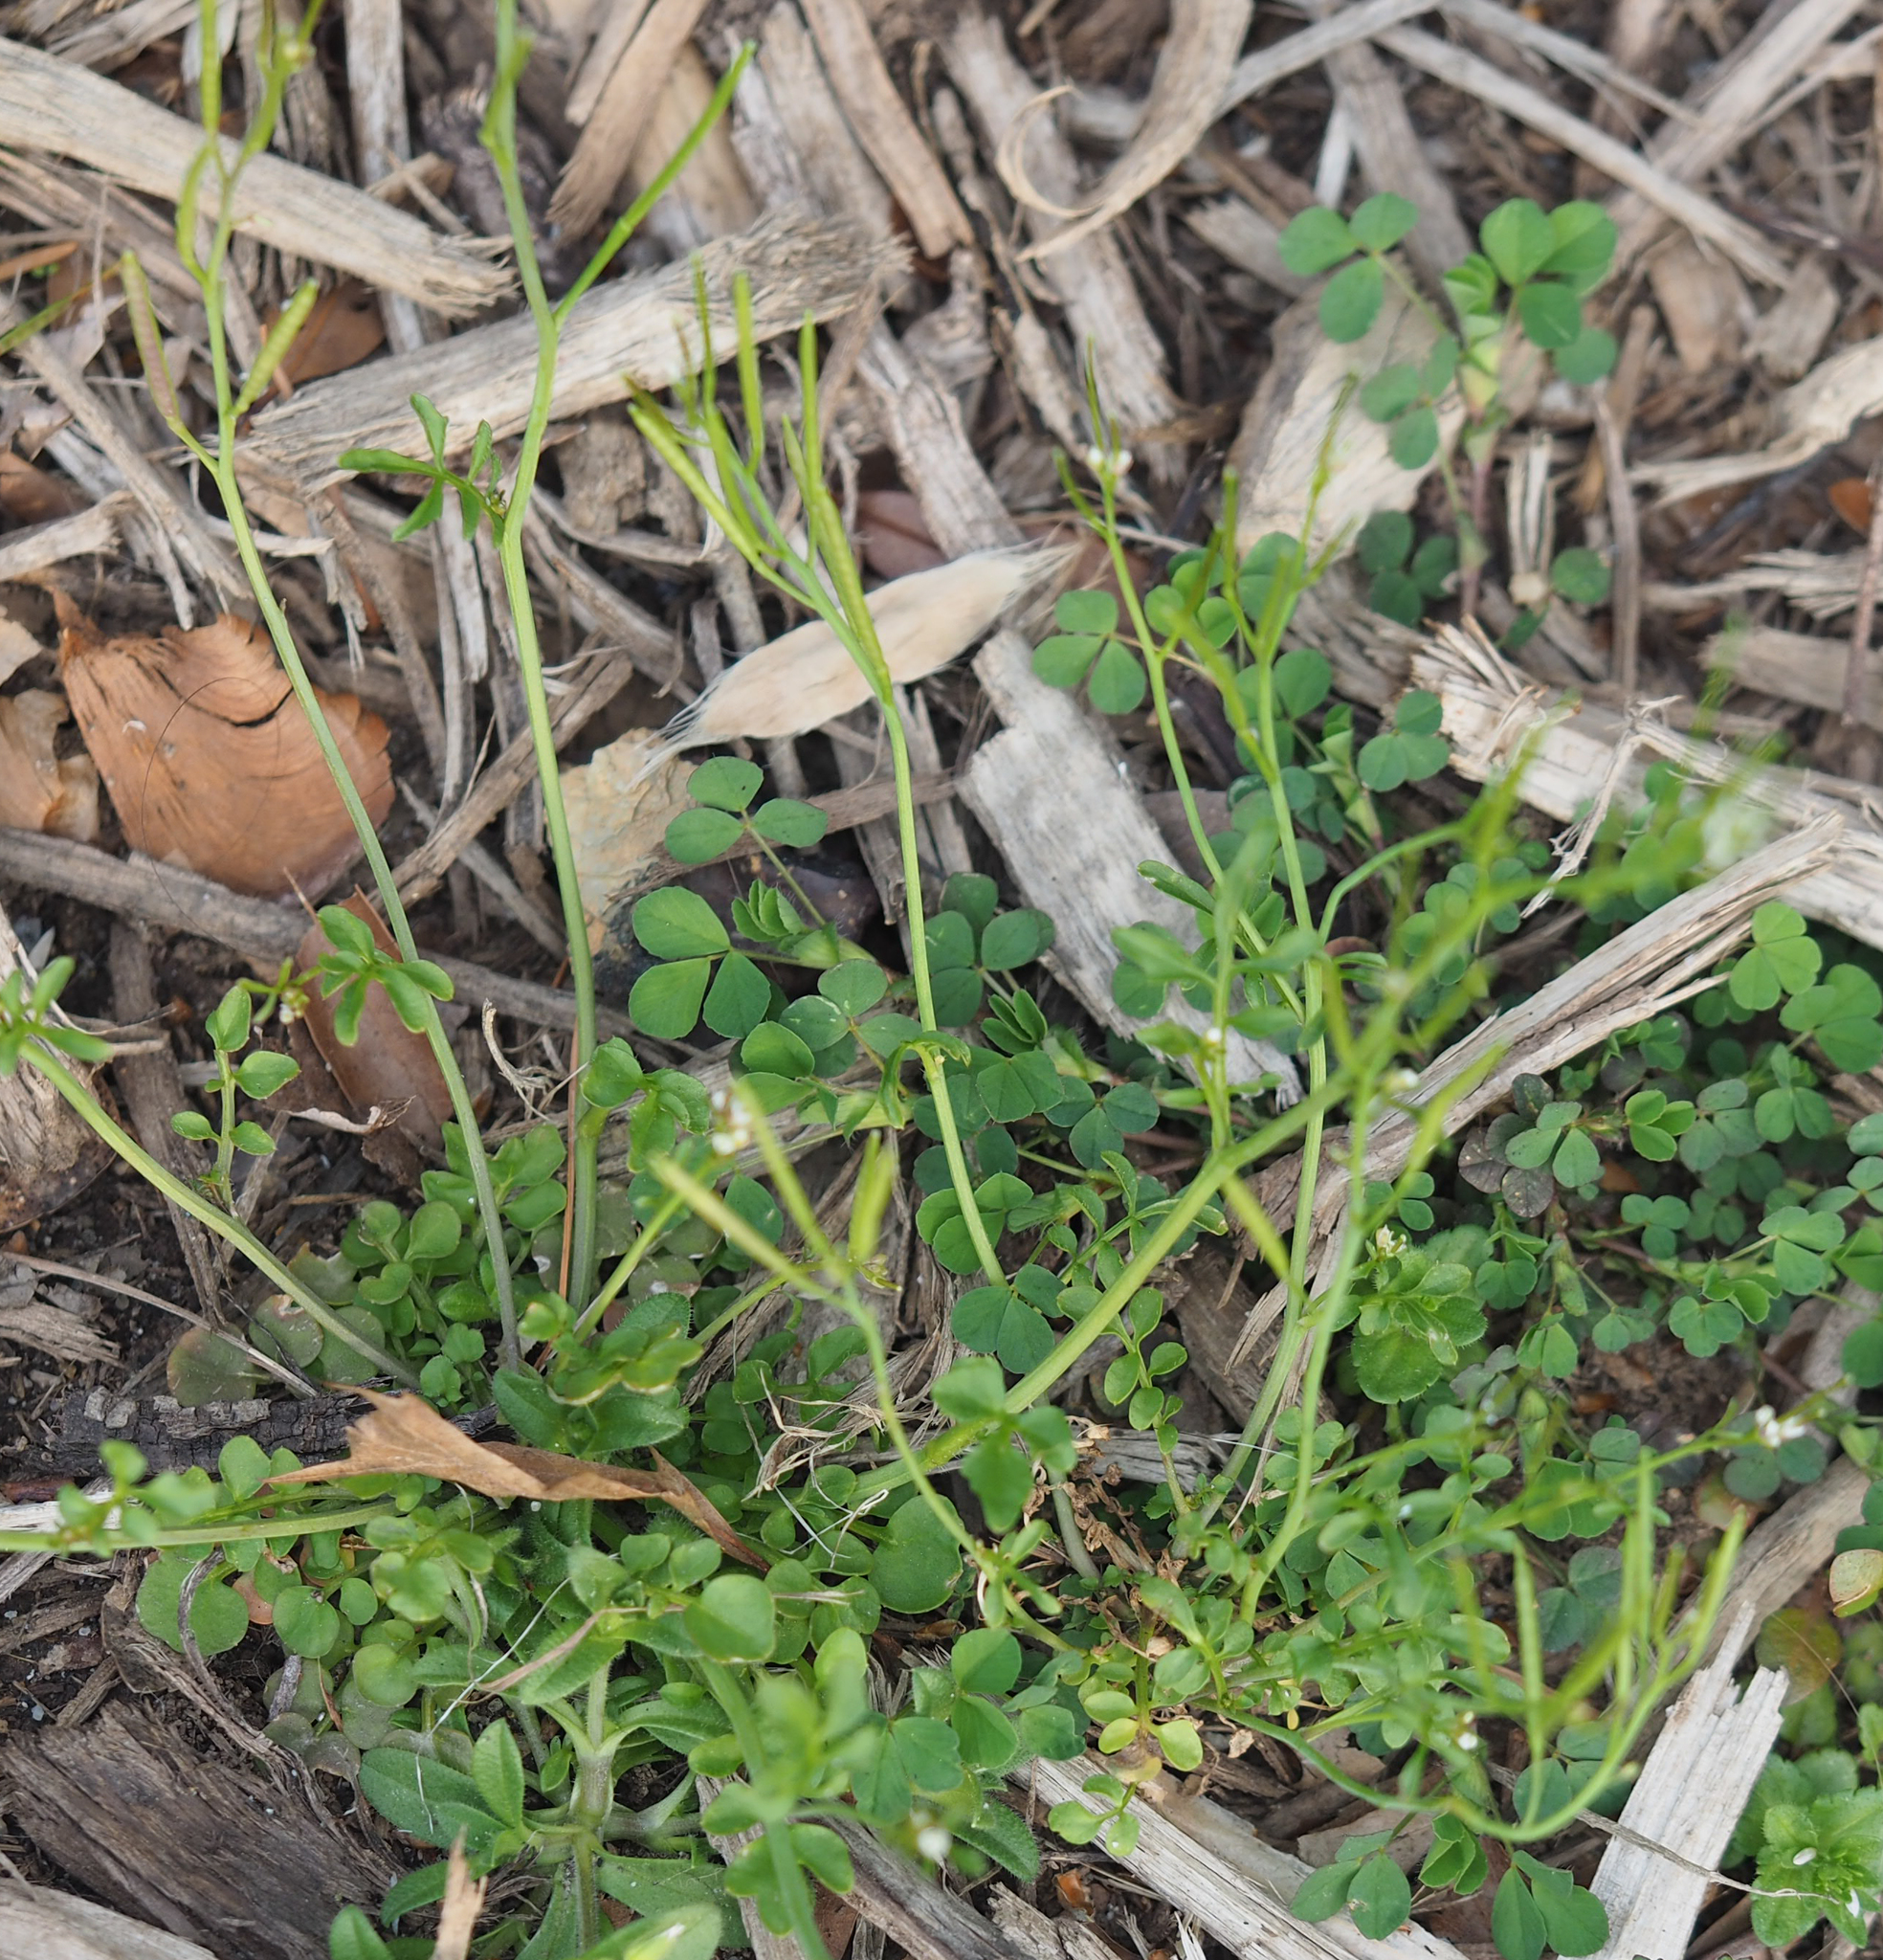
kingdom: Plantae
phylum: Tracheophyta
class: Magnoliopsida
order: Brassicales
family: Brassicaceae
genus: Cardamine
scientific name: Cardamine hirsuta
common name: Hairy bittercress
